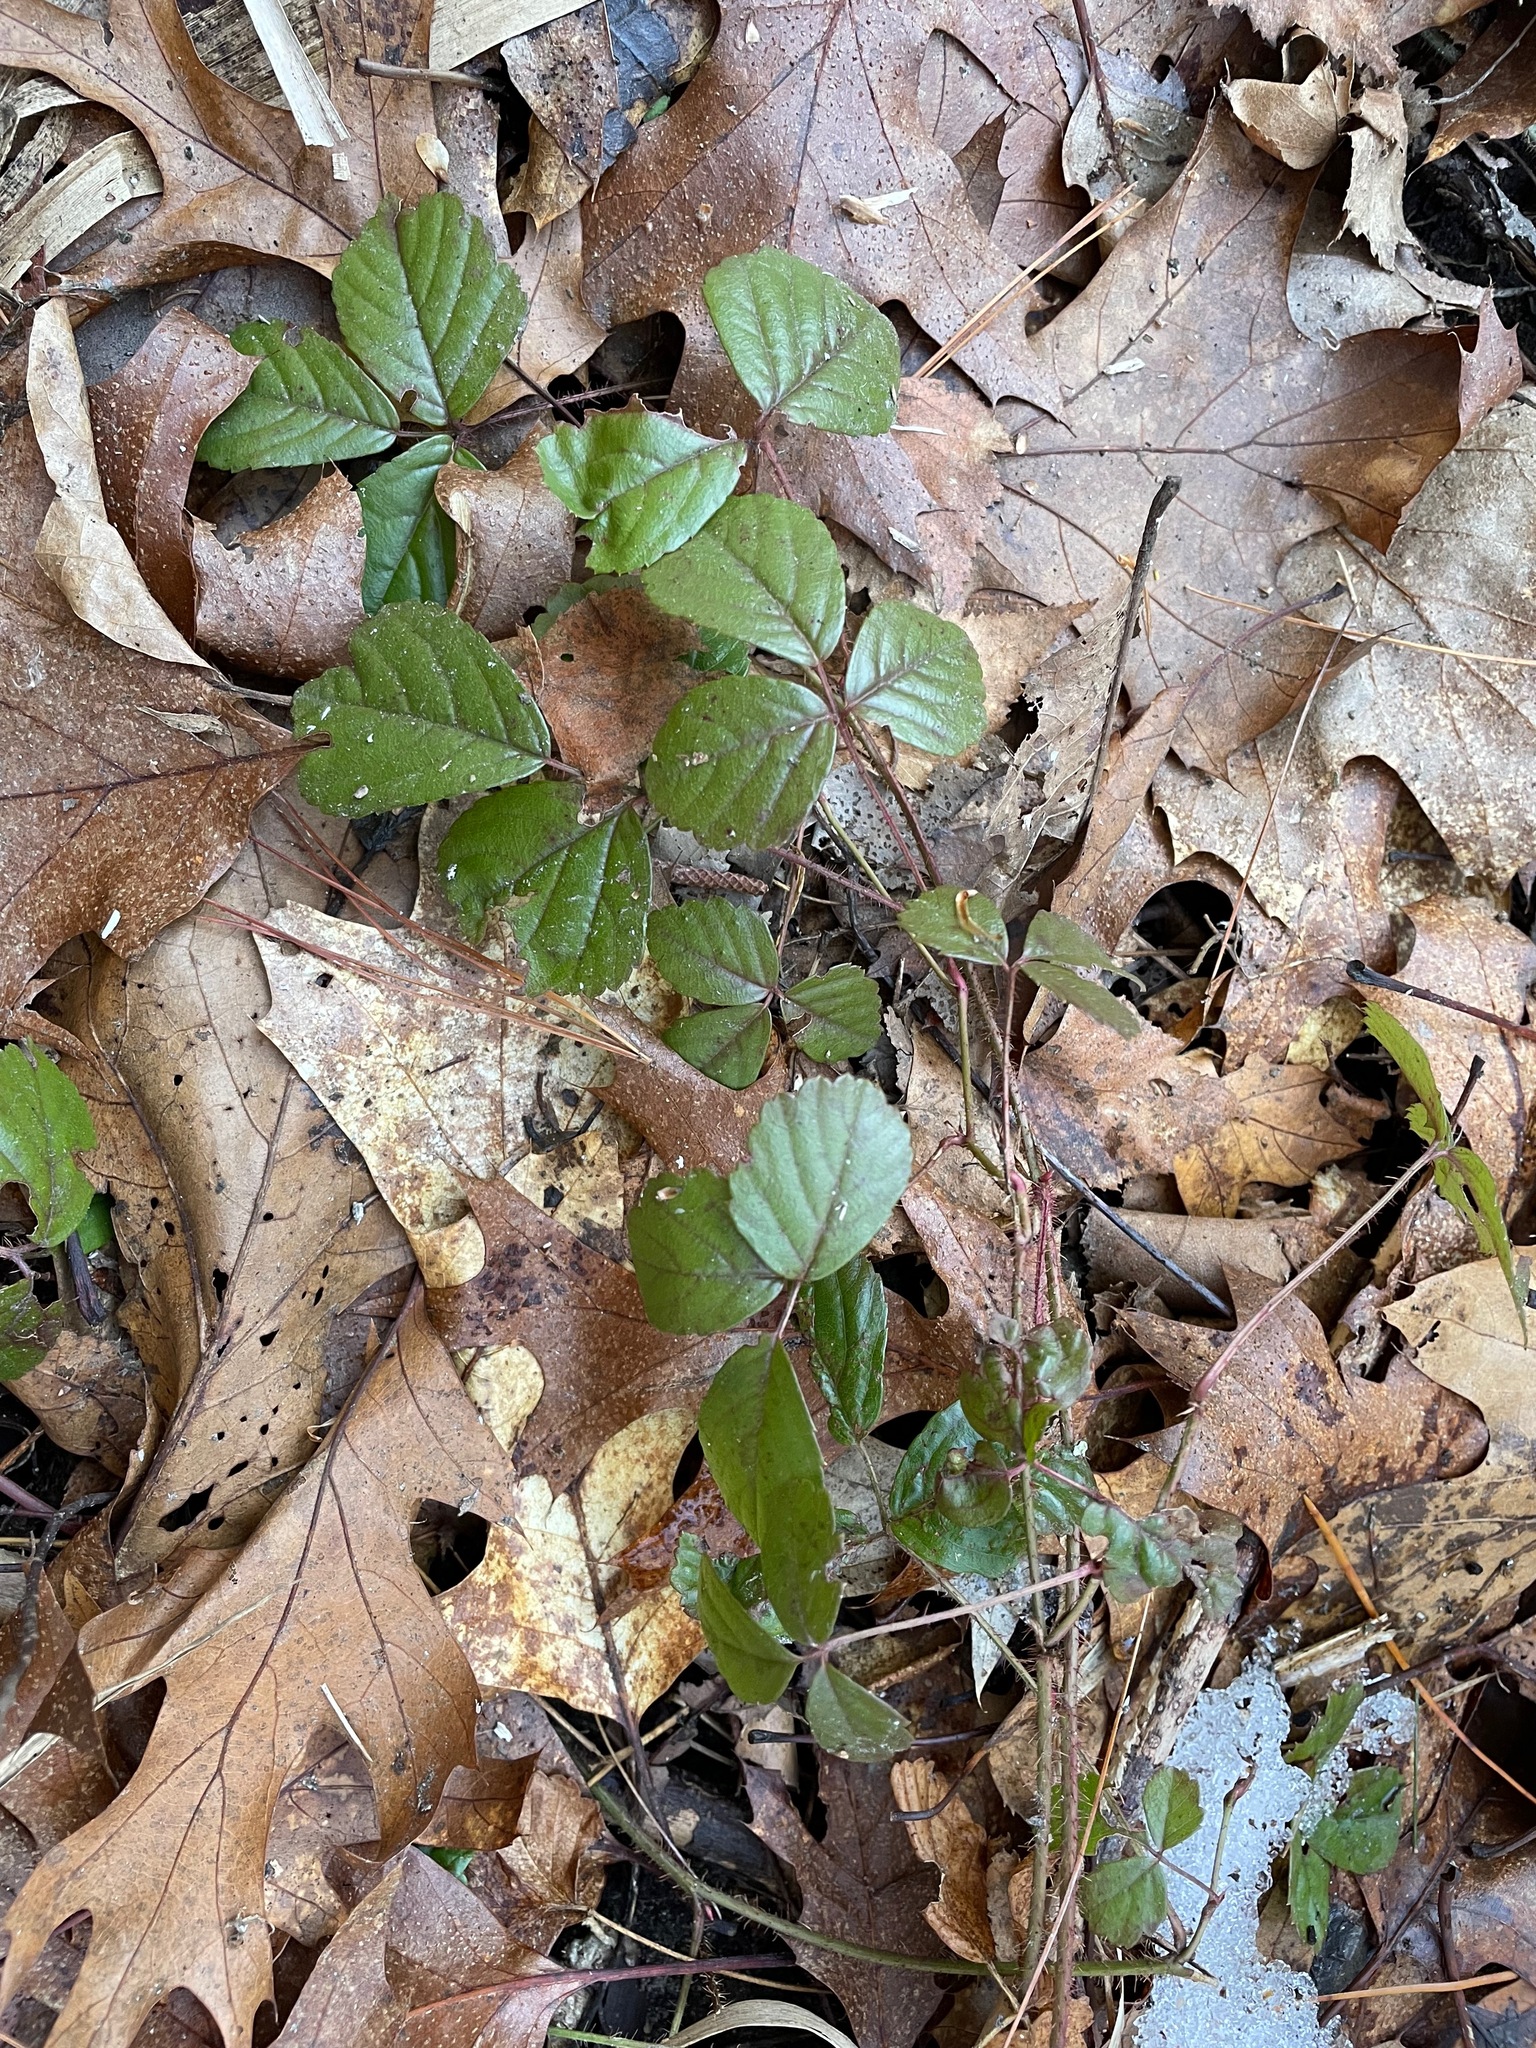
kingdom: Plantae
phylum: Tracheophyta
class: Magnoliopsida
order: Rosales
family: Rosaceae
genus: Rubus
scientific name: Rubus hispidus
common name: Running blackberry
